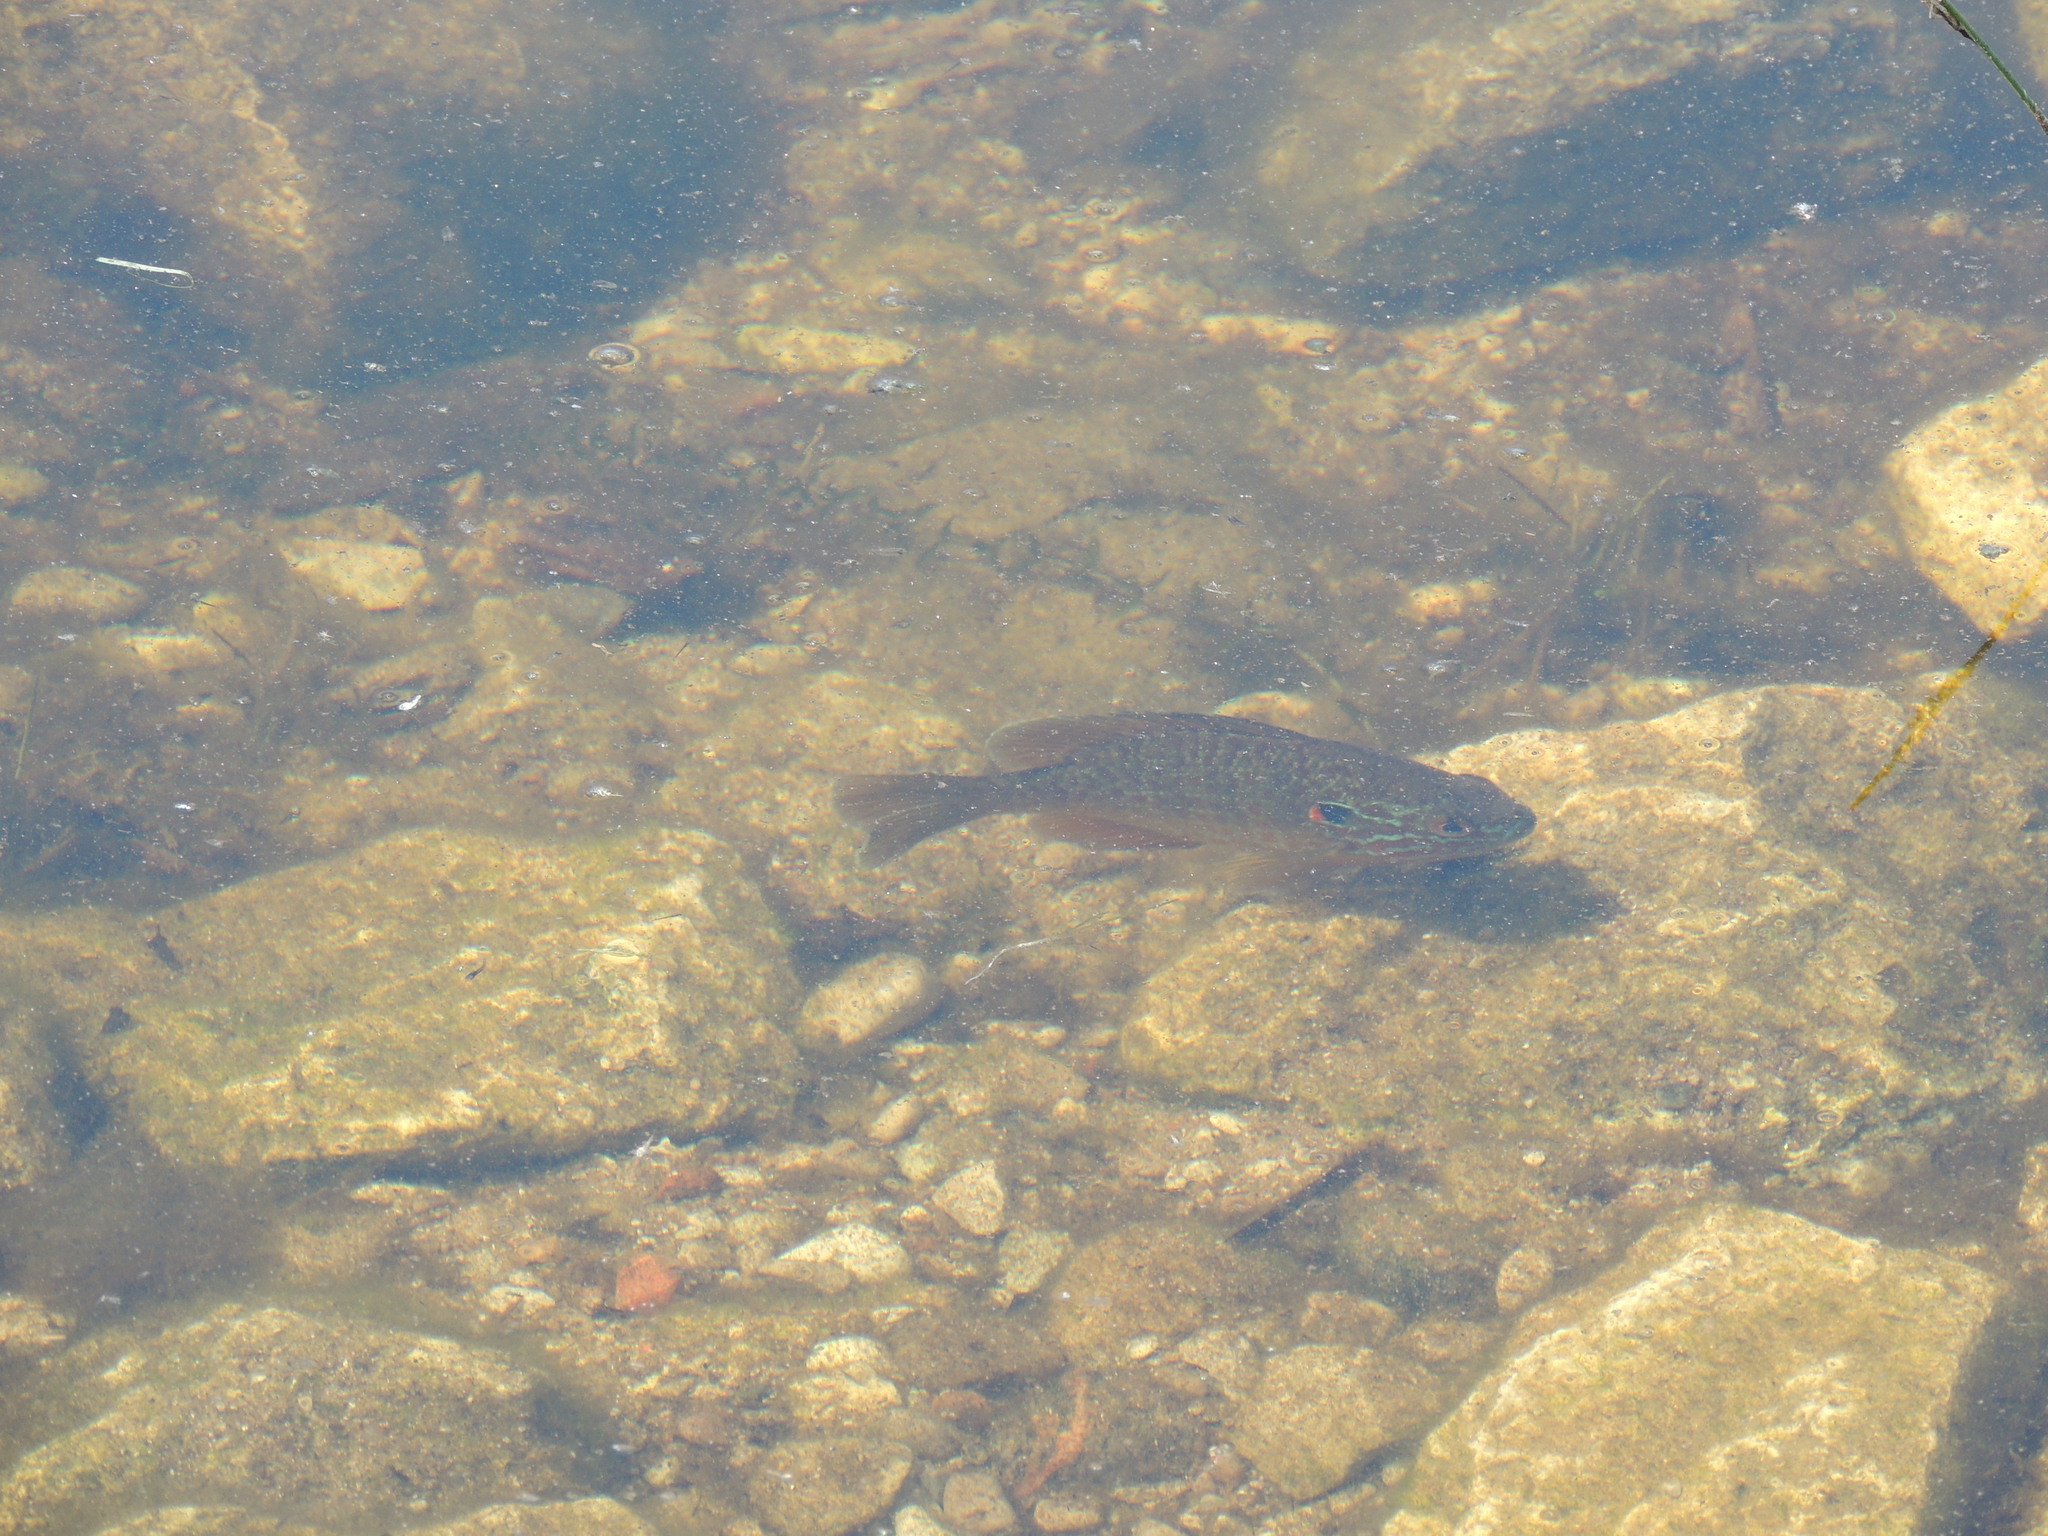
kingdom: Animalia
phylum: Chordata
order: Perciformes
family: Centrarchidae
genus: Lepomis
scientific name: Lepomis gibbosus
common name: Pumpkinseed
